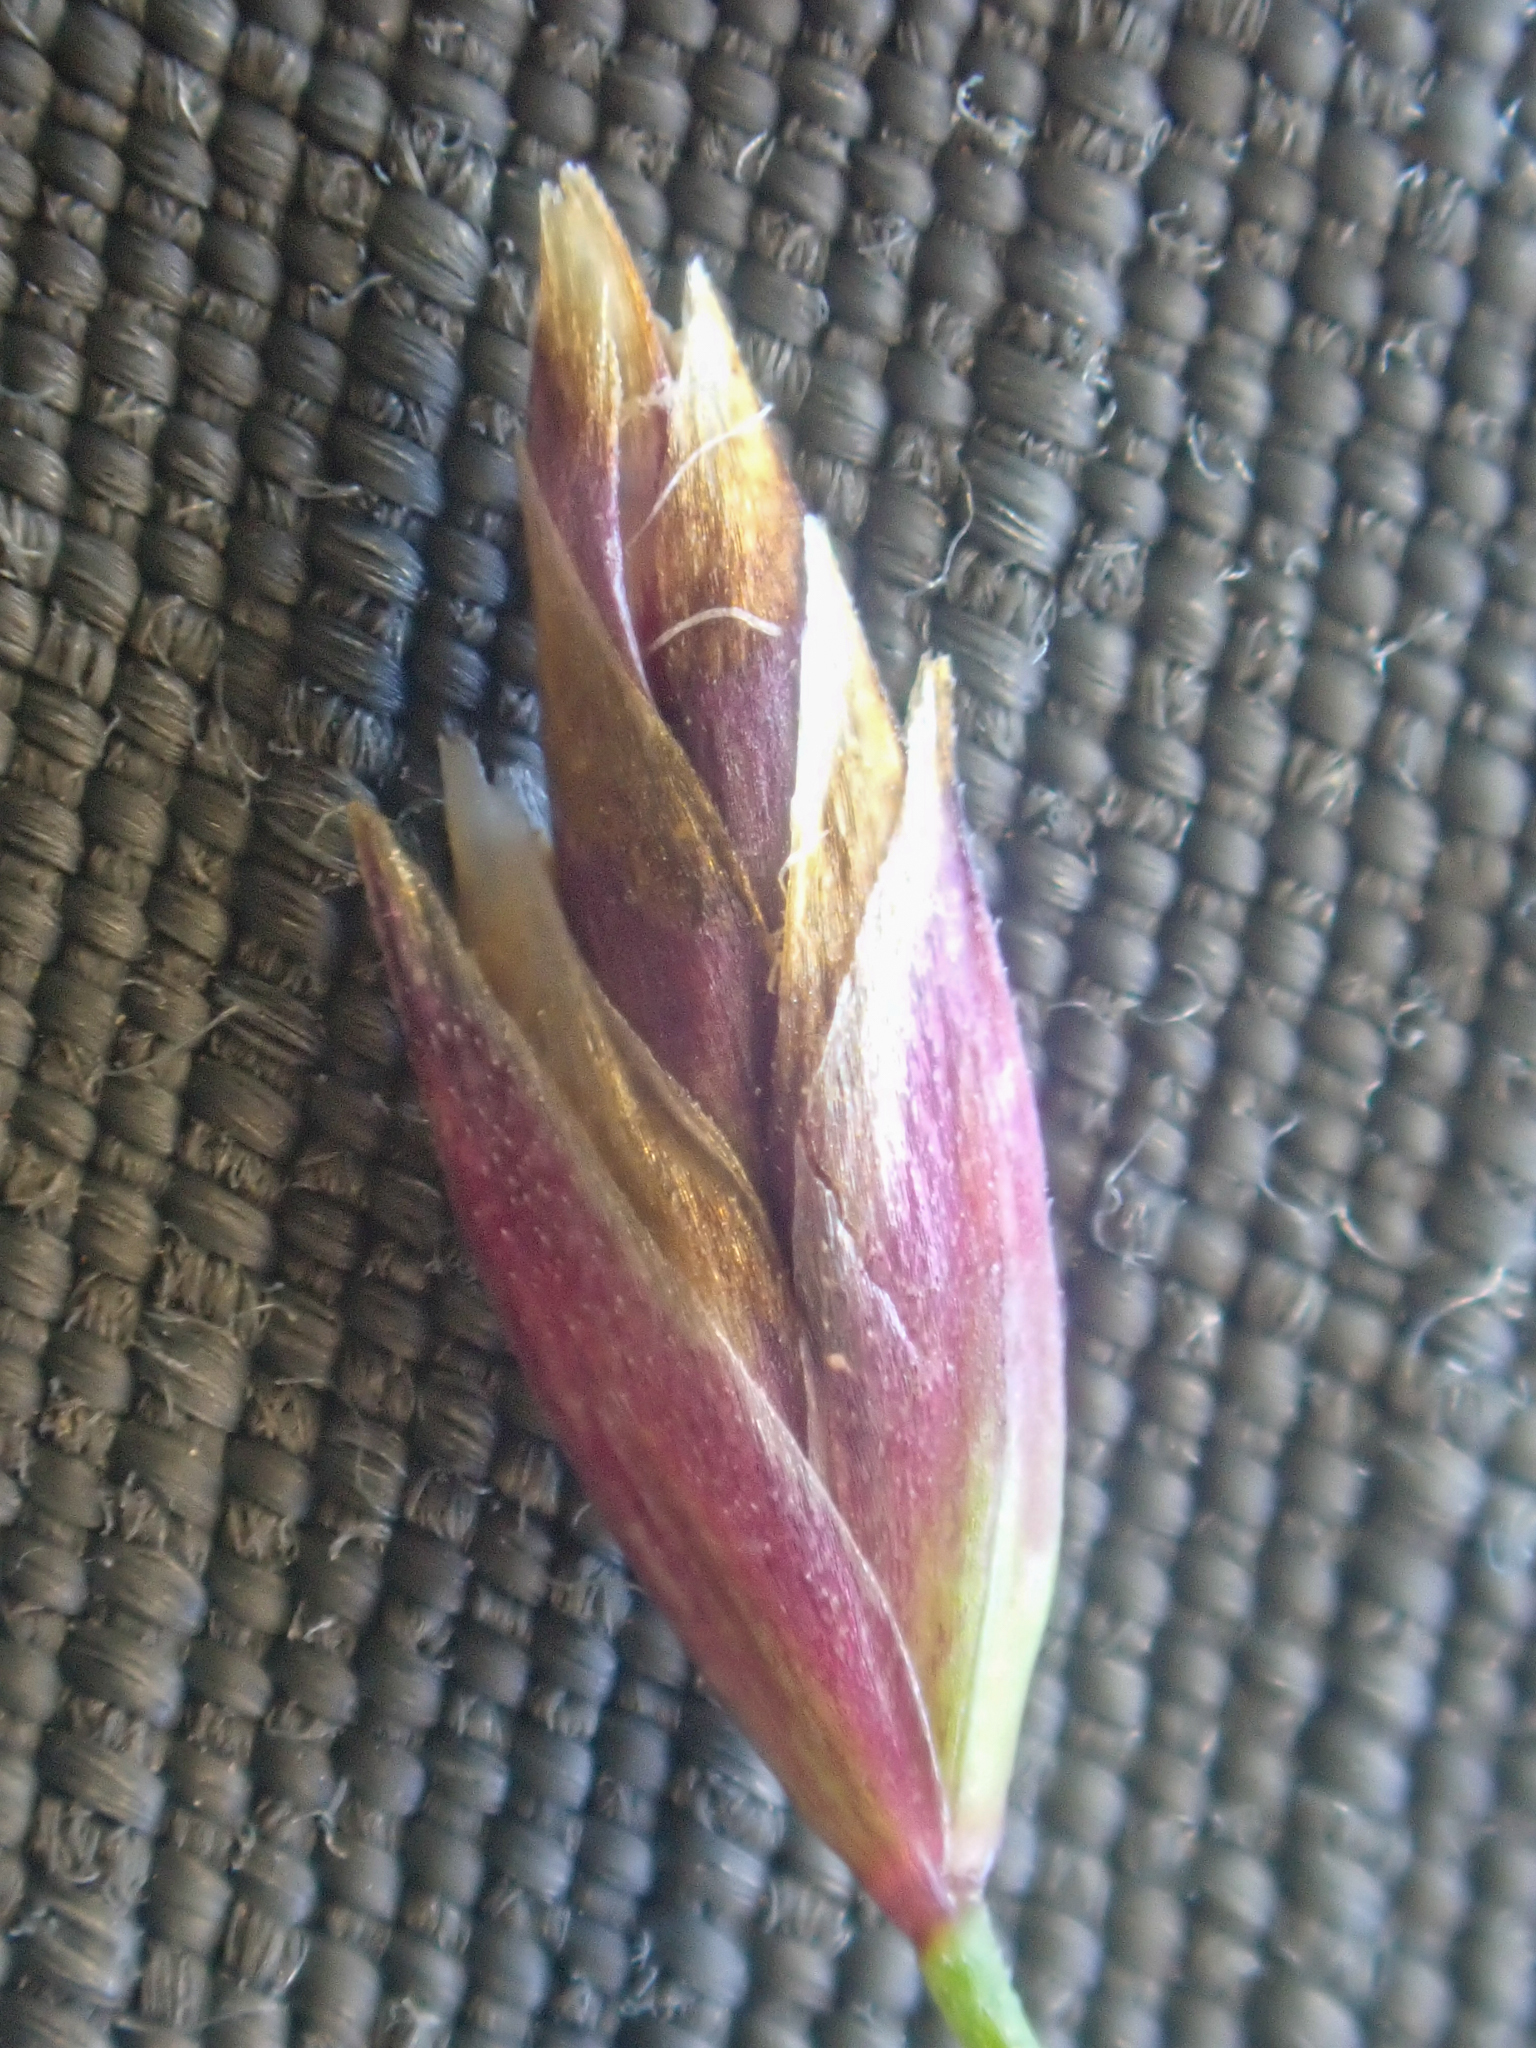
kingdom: Plantae
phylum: Tracheophyta
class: Liliopsida
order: Poales
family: Poaceae
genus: Poa
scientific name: Poa secunda
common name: Sandberg bluegrass
